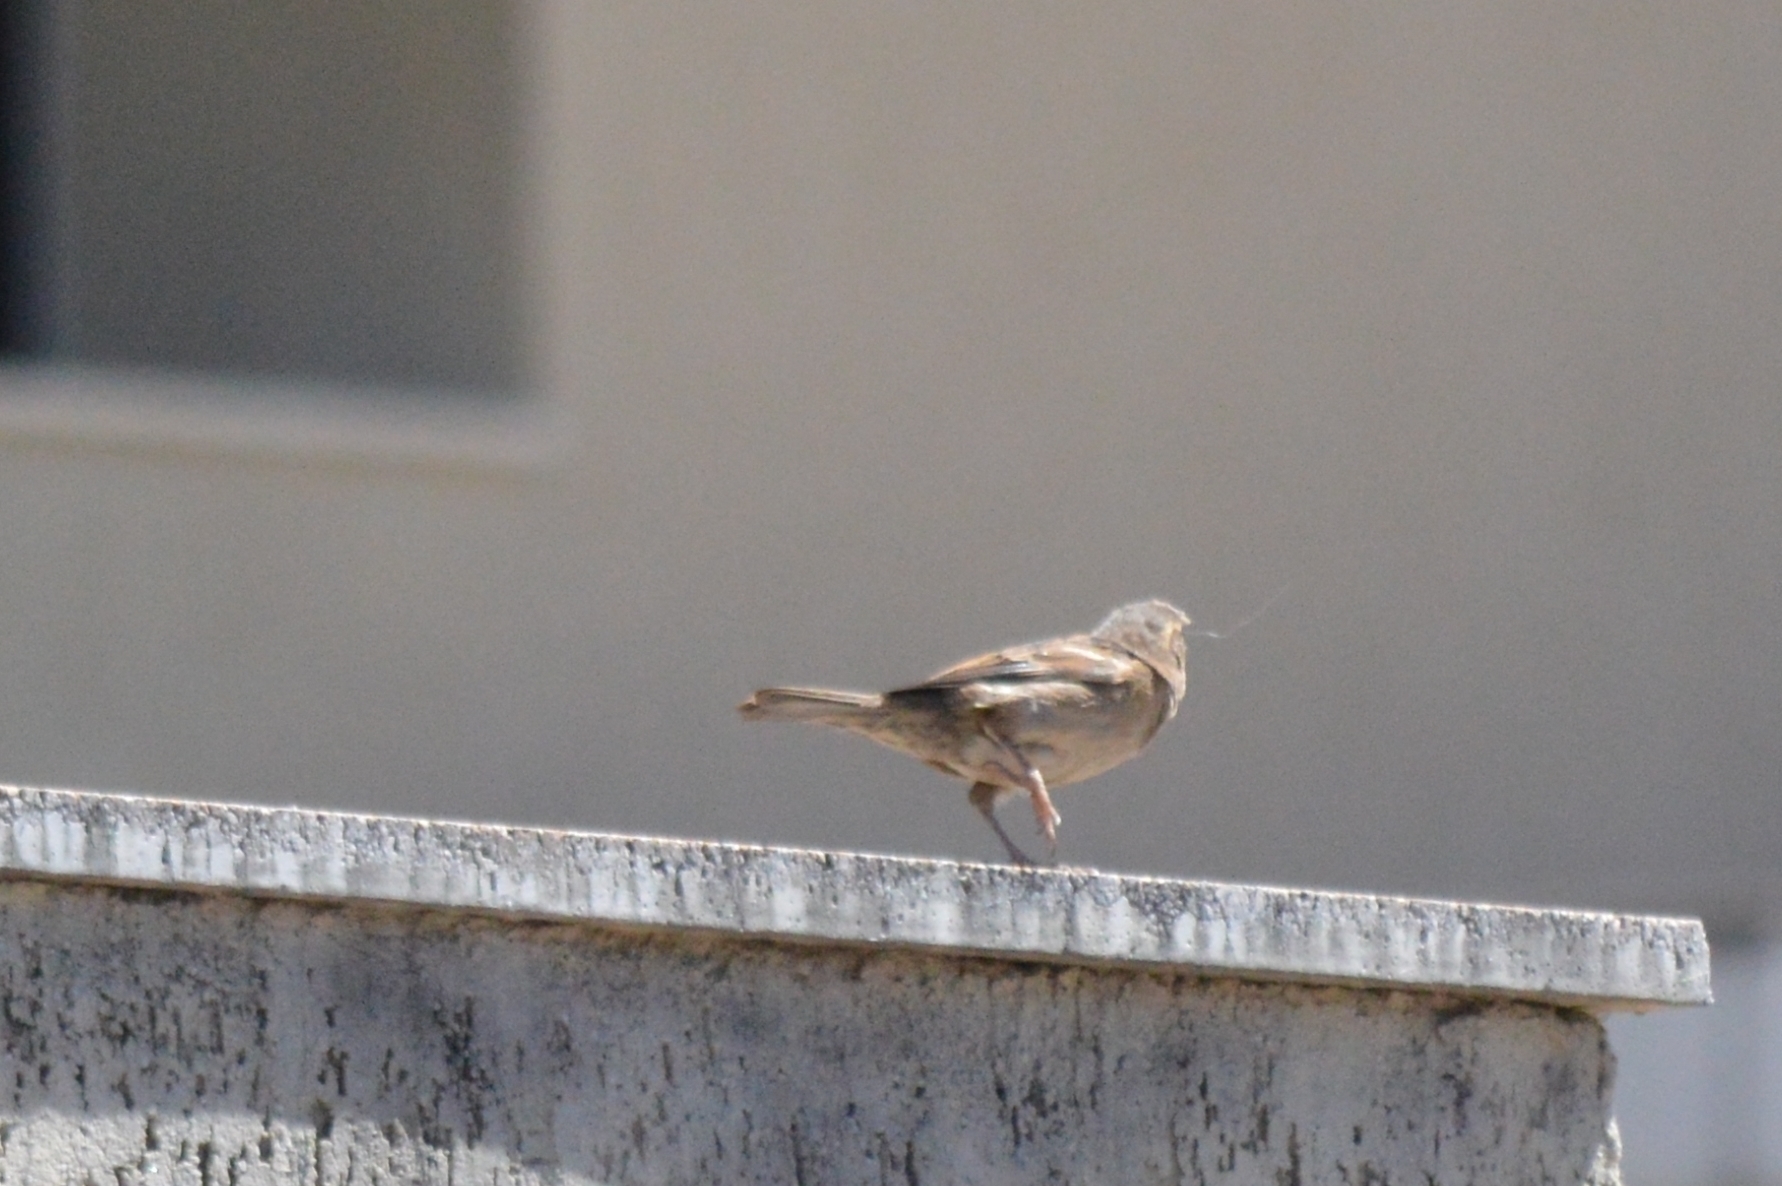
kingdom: Animalia
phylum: Chordata
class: Aves
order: Passeriformes
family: Passeridae
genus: Passer
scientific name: Passer domesticus
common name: House sparrow
